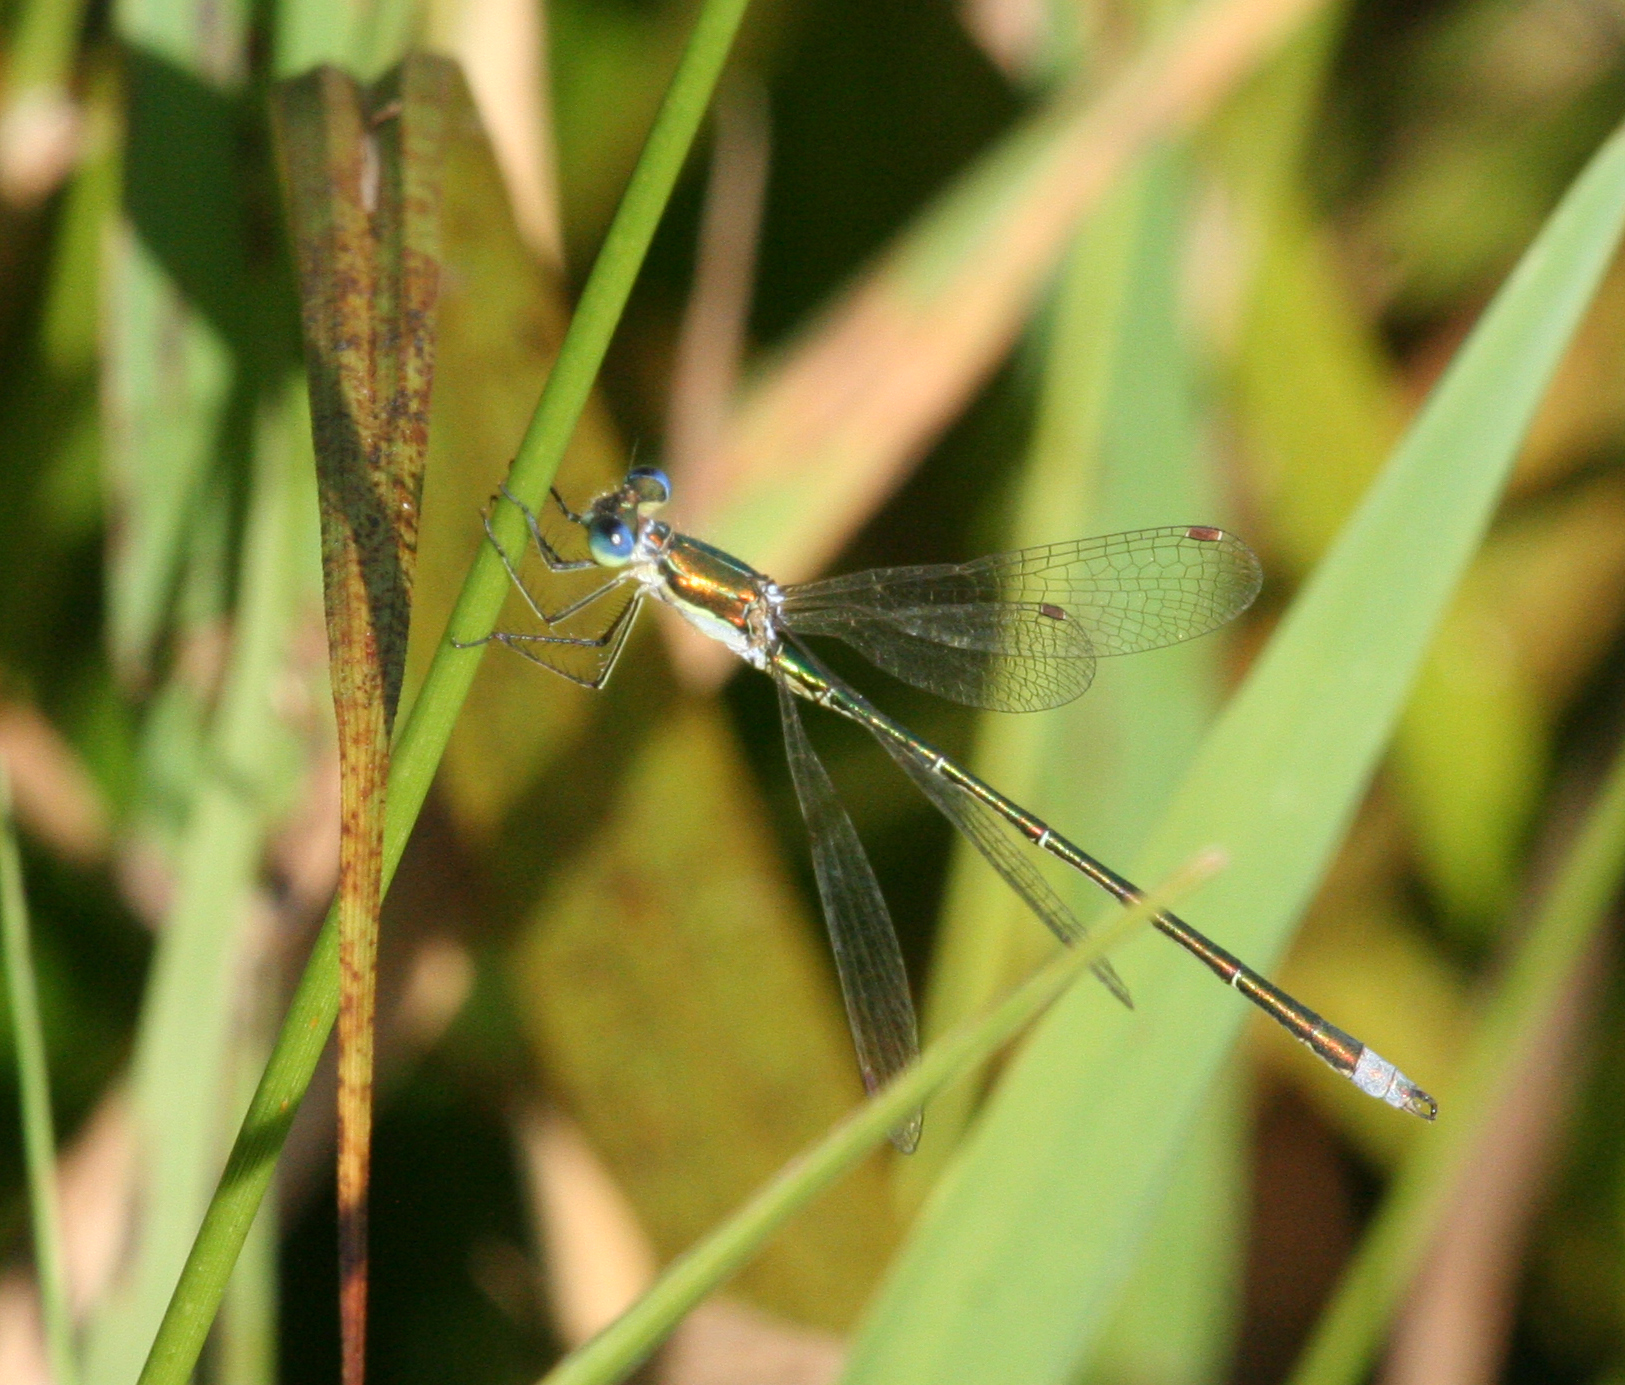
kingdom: Animalia
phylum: Arthropoda
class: Insecta
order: Odonata
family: Lestidae
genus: Lestes
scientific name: Lestes virens
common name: Small emerald spreadwing
